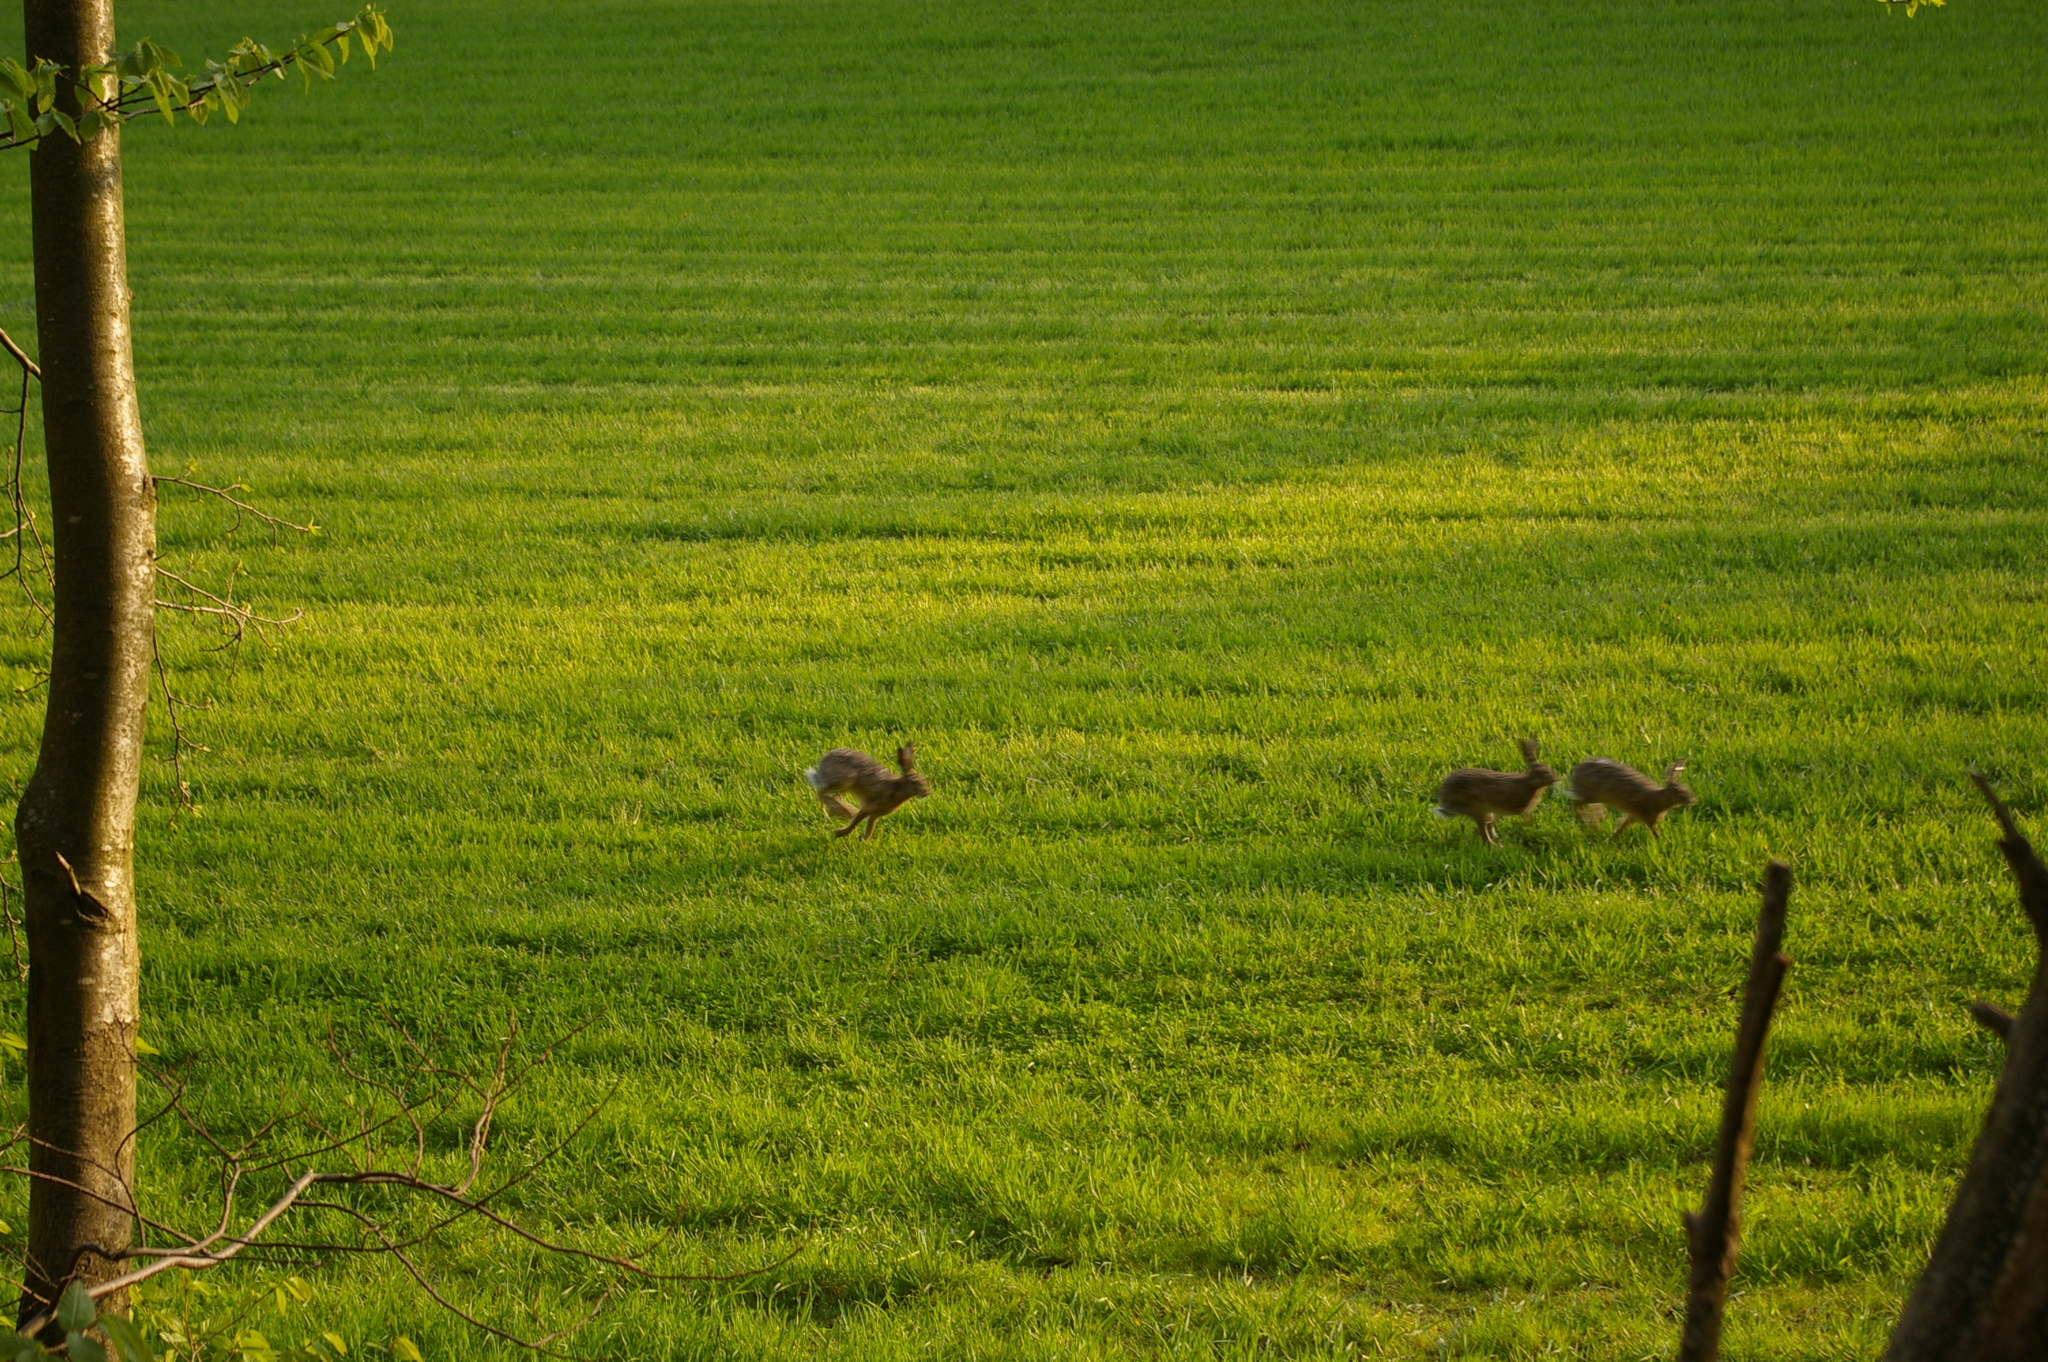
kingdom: Animalia
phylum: Chordata
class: Mammalia
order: Lagomorpha
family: Leporidae
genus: Lepus
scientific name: Lepus europaeus
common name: European hare
